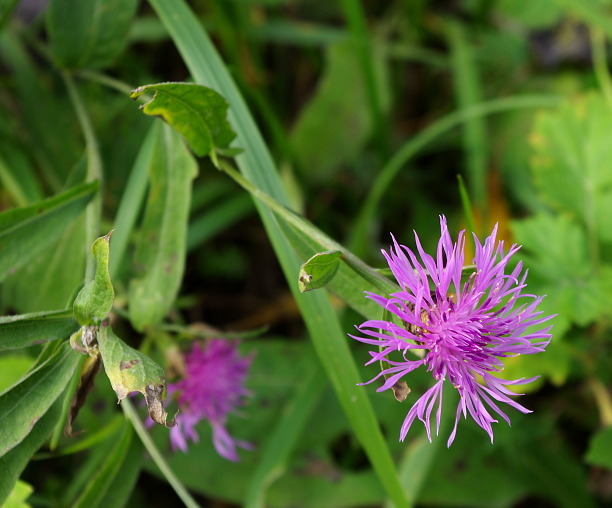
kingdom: Plantae
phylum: Tracheophyta
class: Magnoliopsida
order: Asterales
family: Asteraceae
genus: Centaurea
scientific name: Centaurea jacea
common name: Brown knapweed
